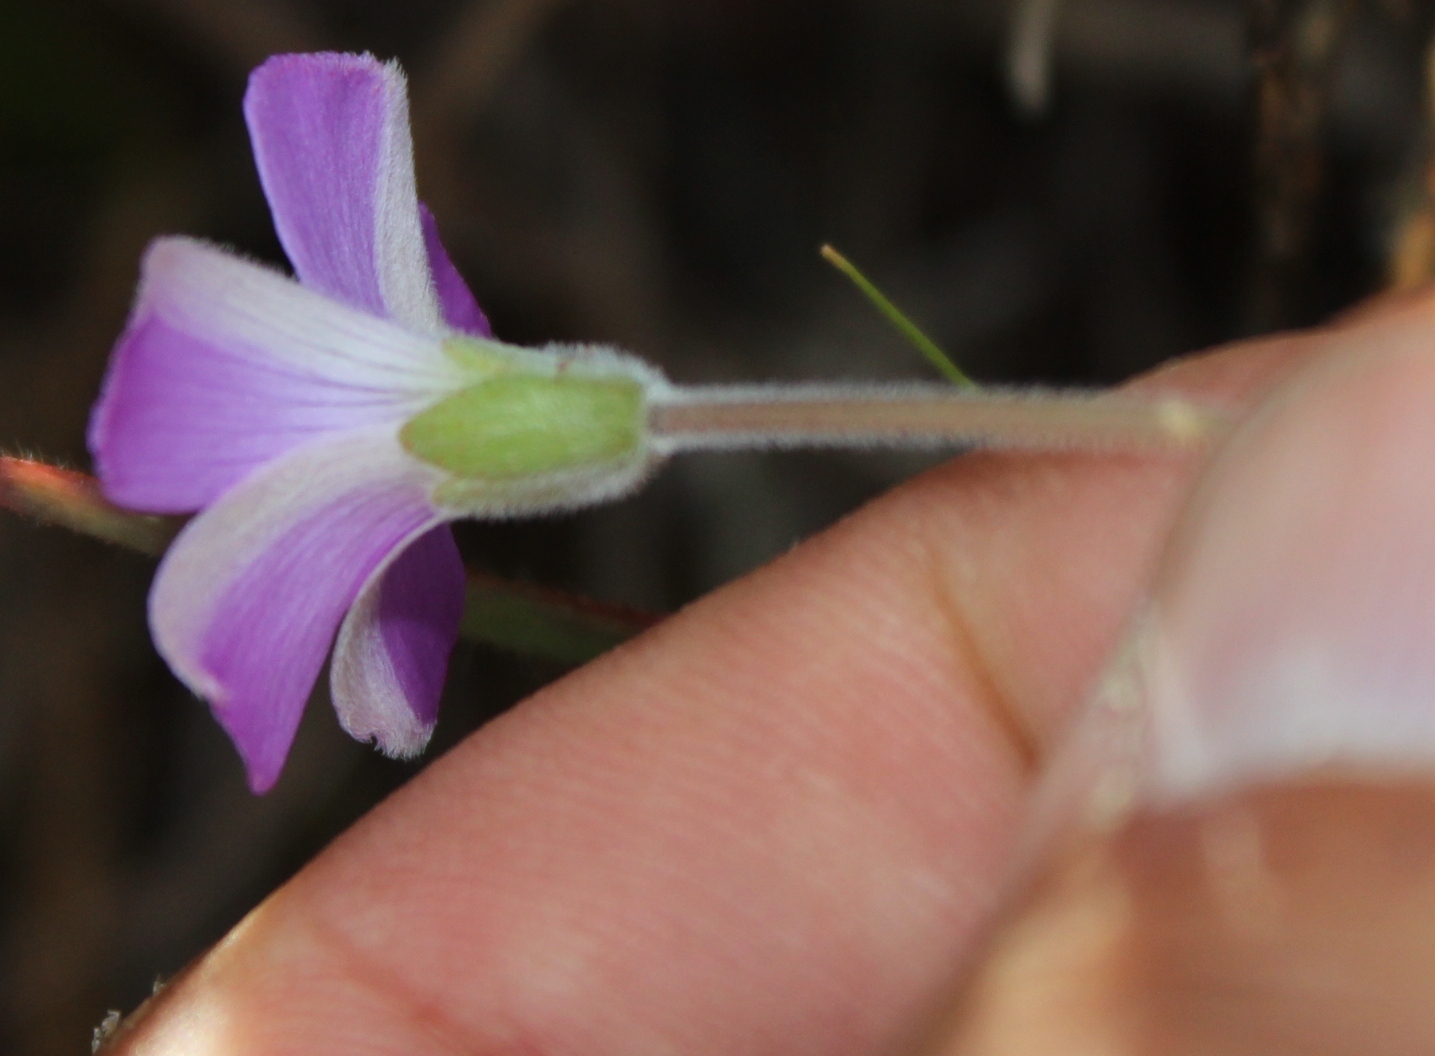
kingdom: Plantae
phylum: Tracheophyta
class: Magnoliopsida
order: Oxalidales
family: Oxalidaceae
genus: Oxalis
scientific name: Oxalis truncatula
